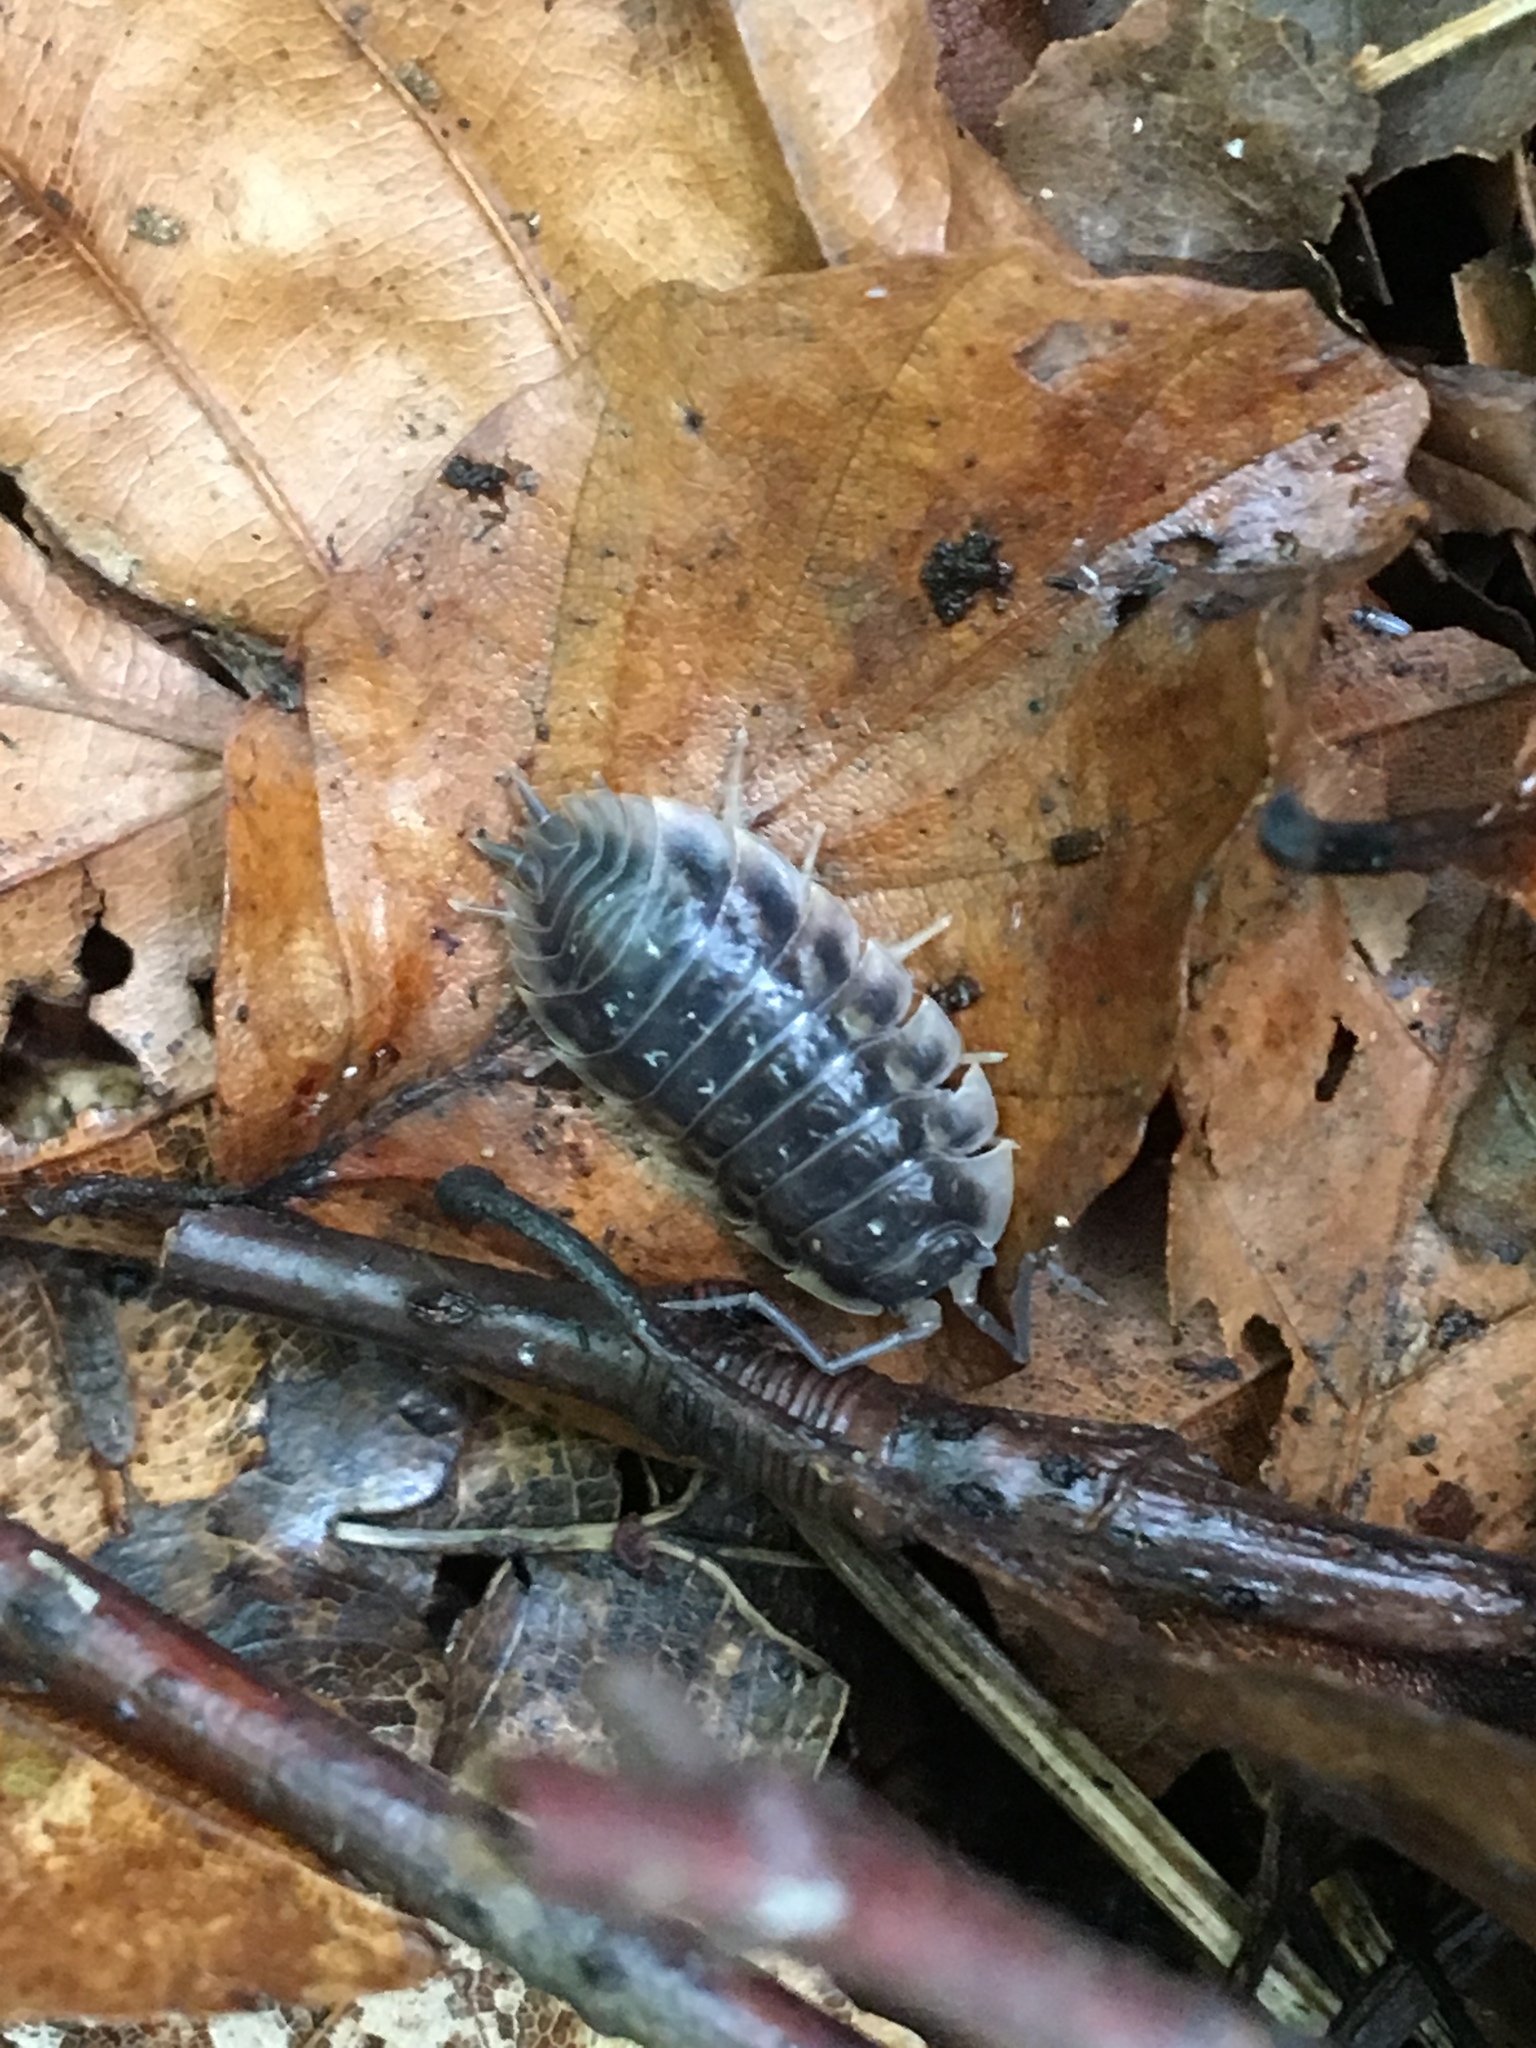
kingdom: Animalia
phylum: Arthropoda
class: Malacostraca
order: Isopoda
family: Oniscidae
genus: Oniscus
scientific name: Oniscus asellus
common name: Common shiny woodlouse
